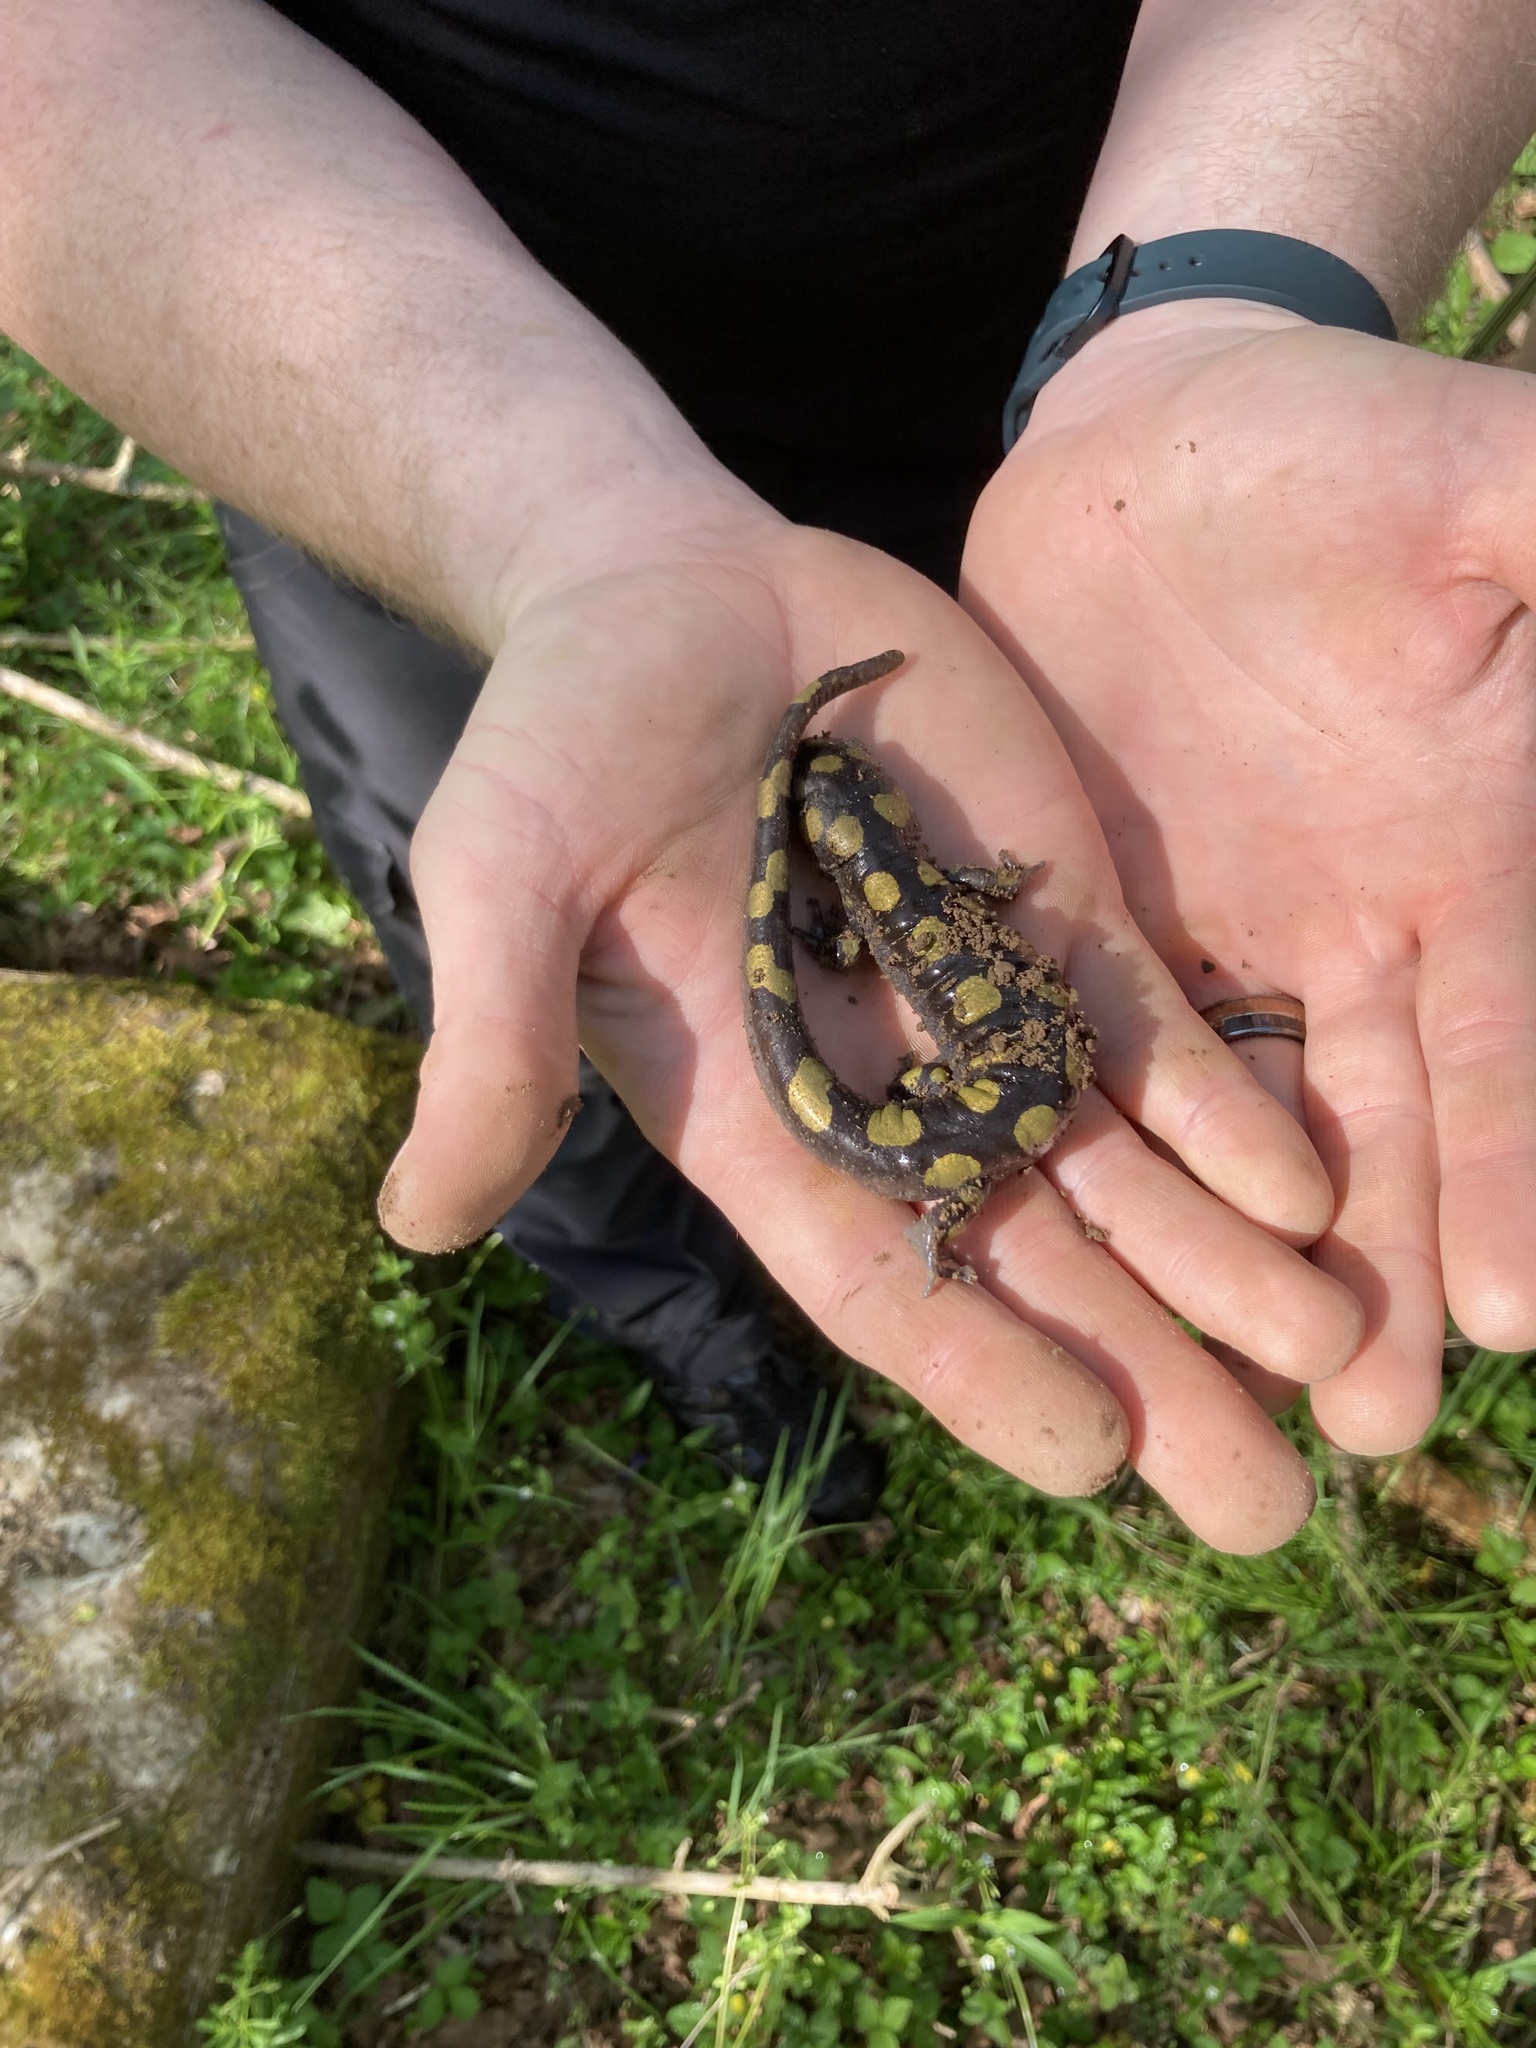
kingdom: Animalia
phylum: Chordata
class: Amphibia
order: Caudata
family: Ambystomatidae
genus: Ambystoma
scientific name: Ambystoma maculatum
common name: Spotted salamander
